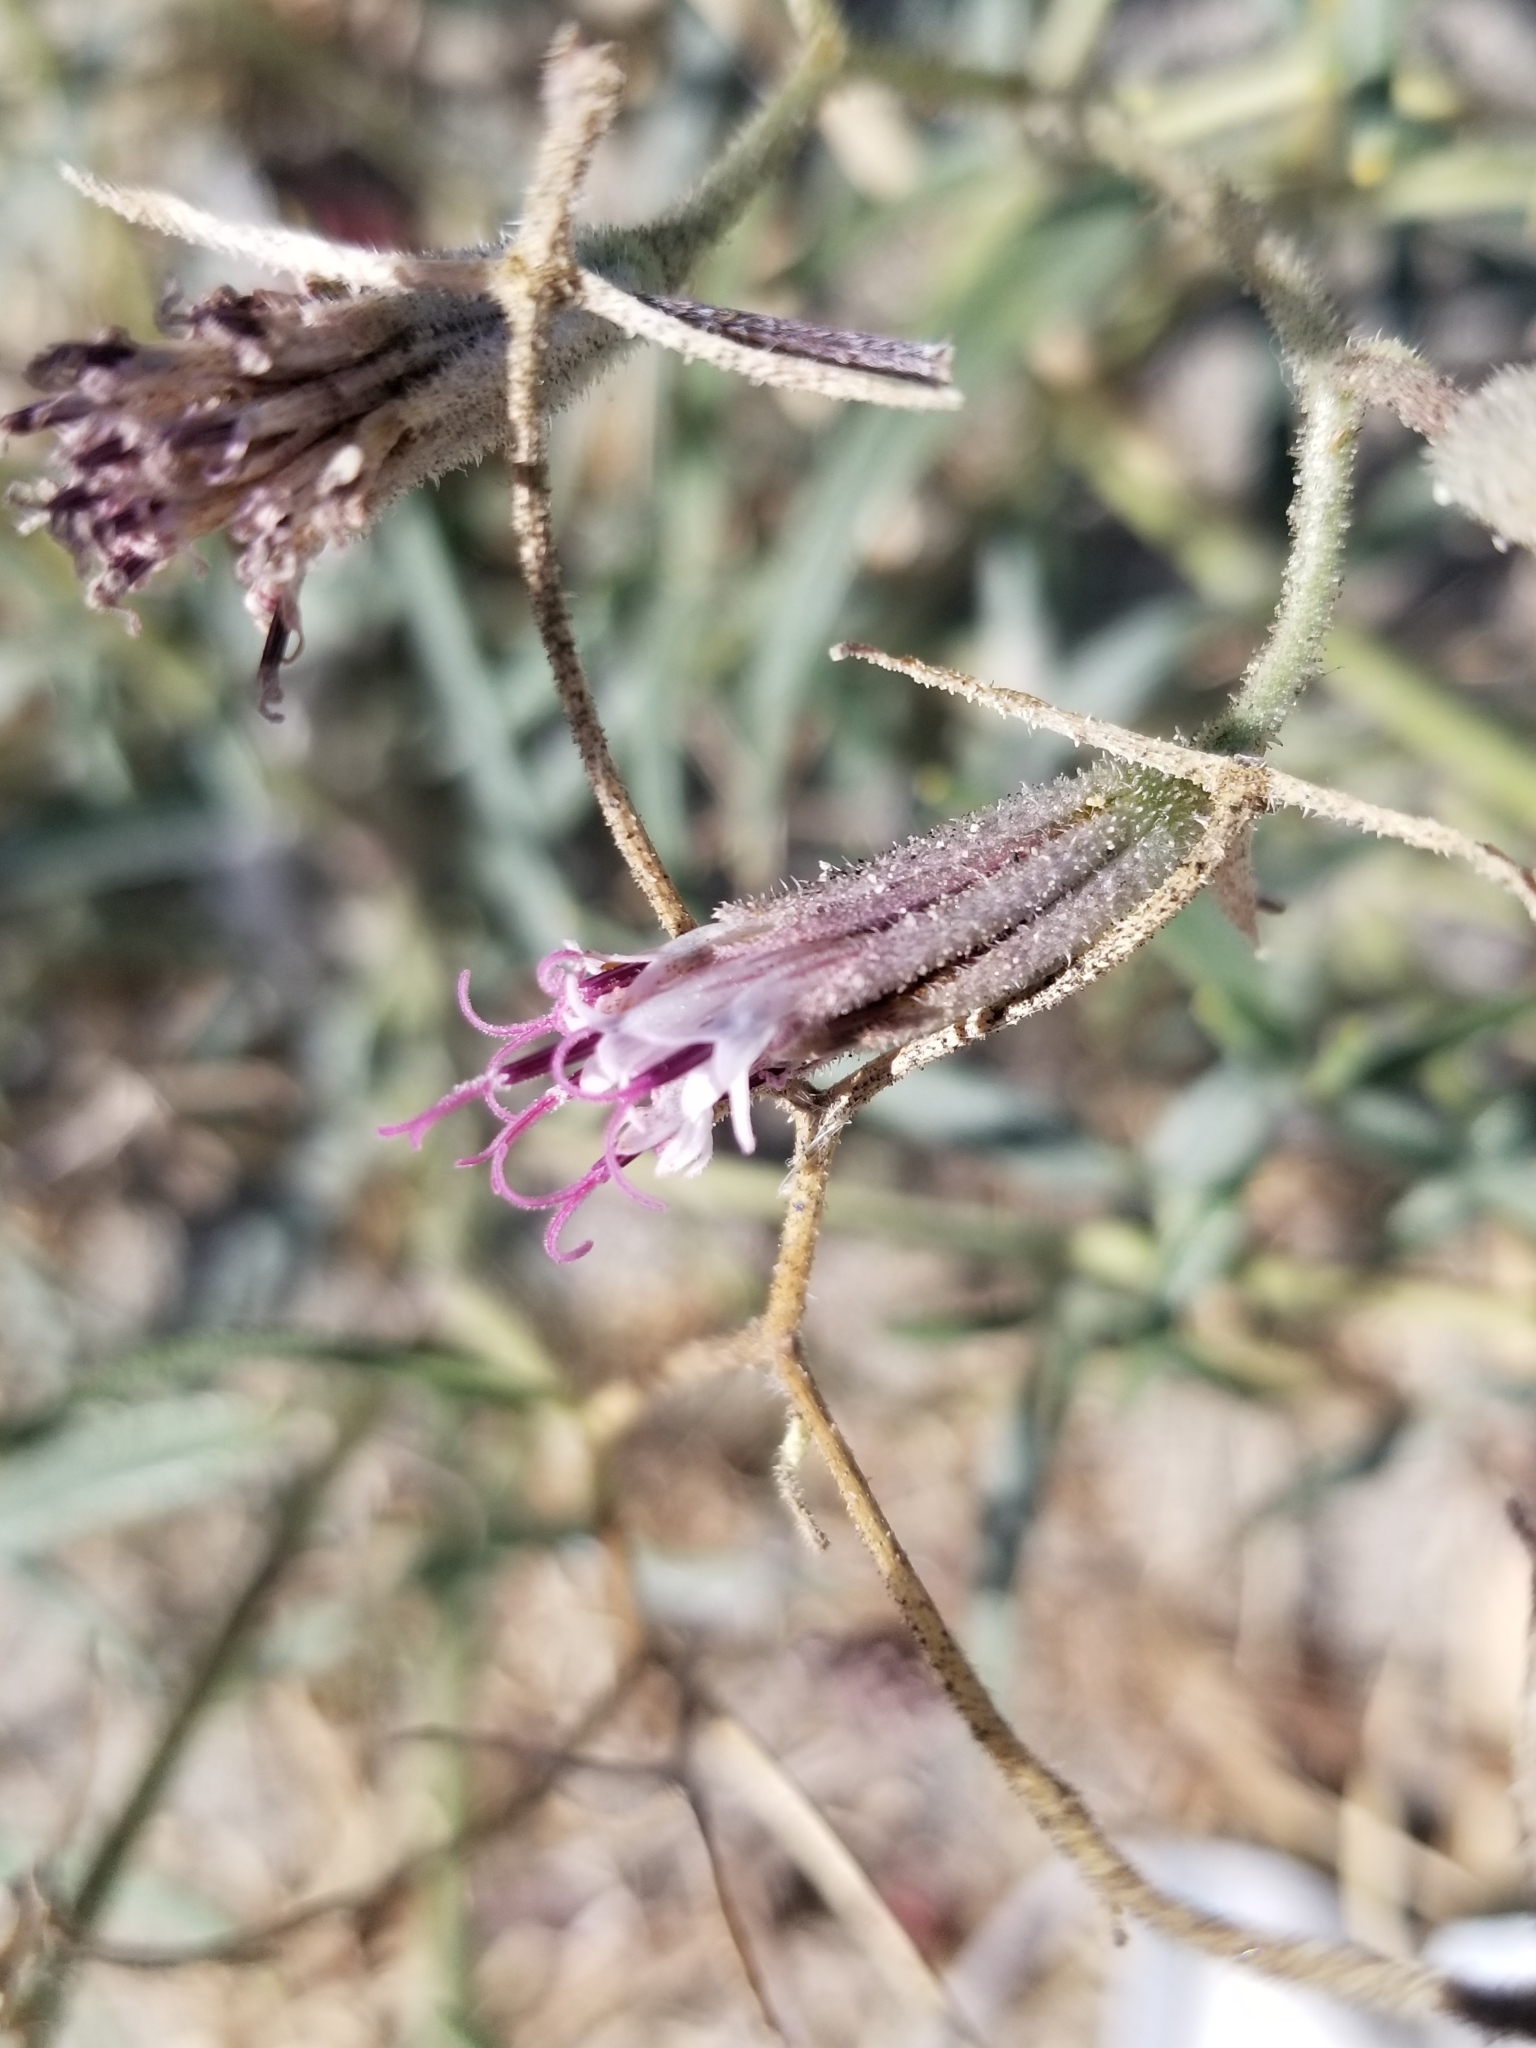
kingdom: Plantae
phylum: Tracheophyta
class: Magnoliopsida
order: Asterales
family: Asteraceae
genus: Palafoxia
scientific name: Palafoxia arida
